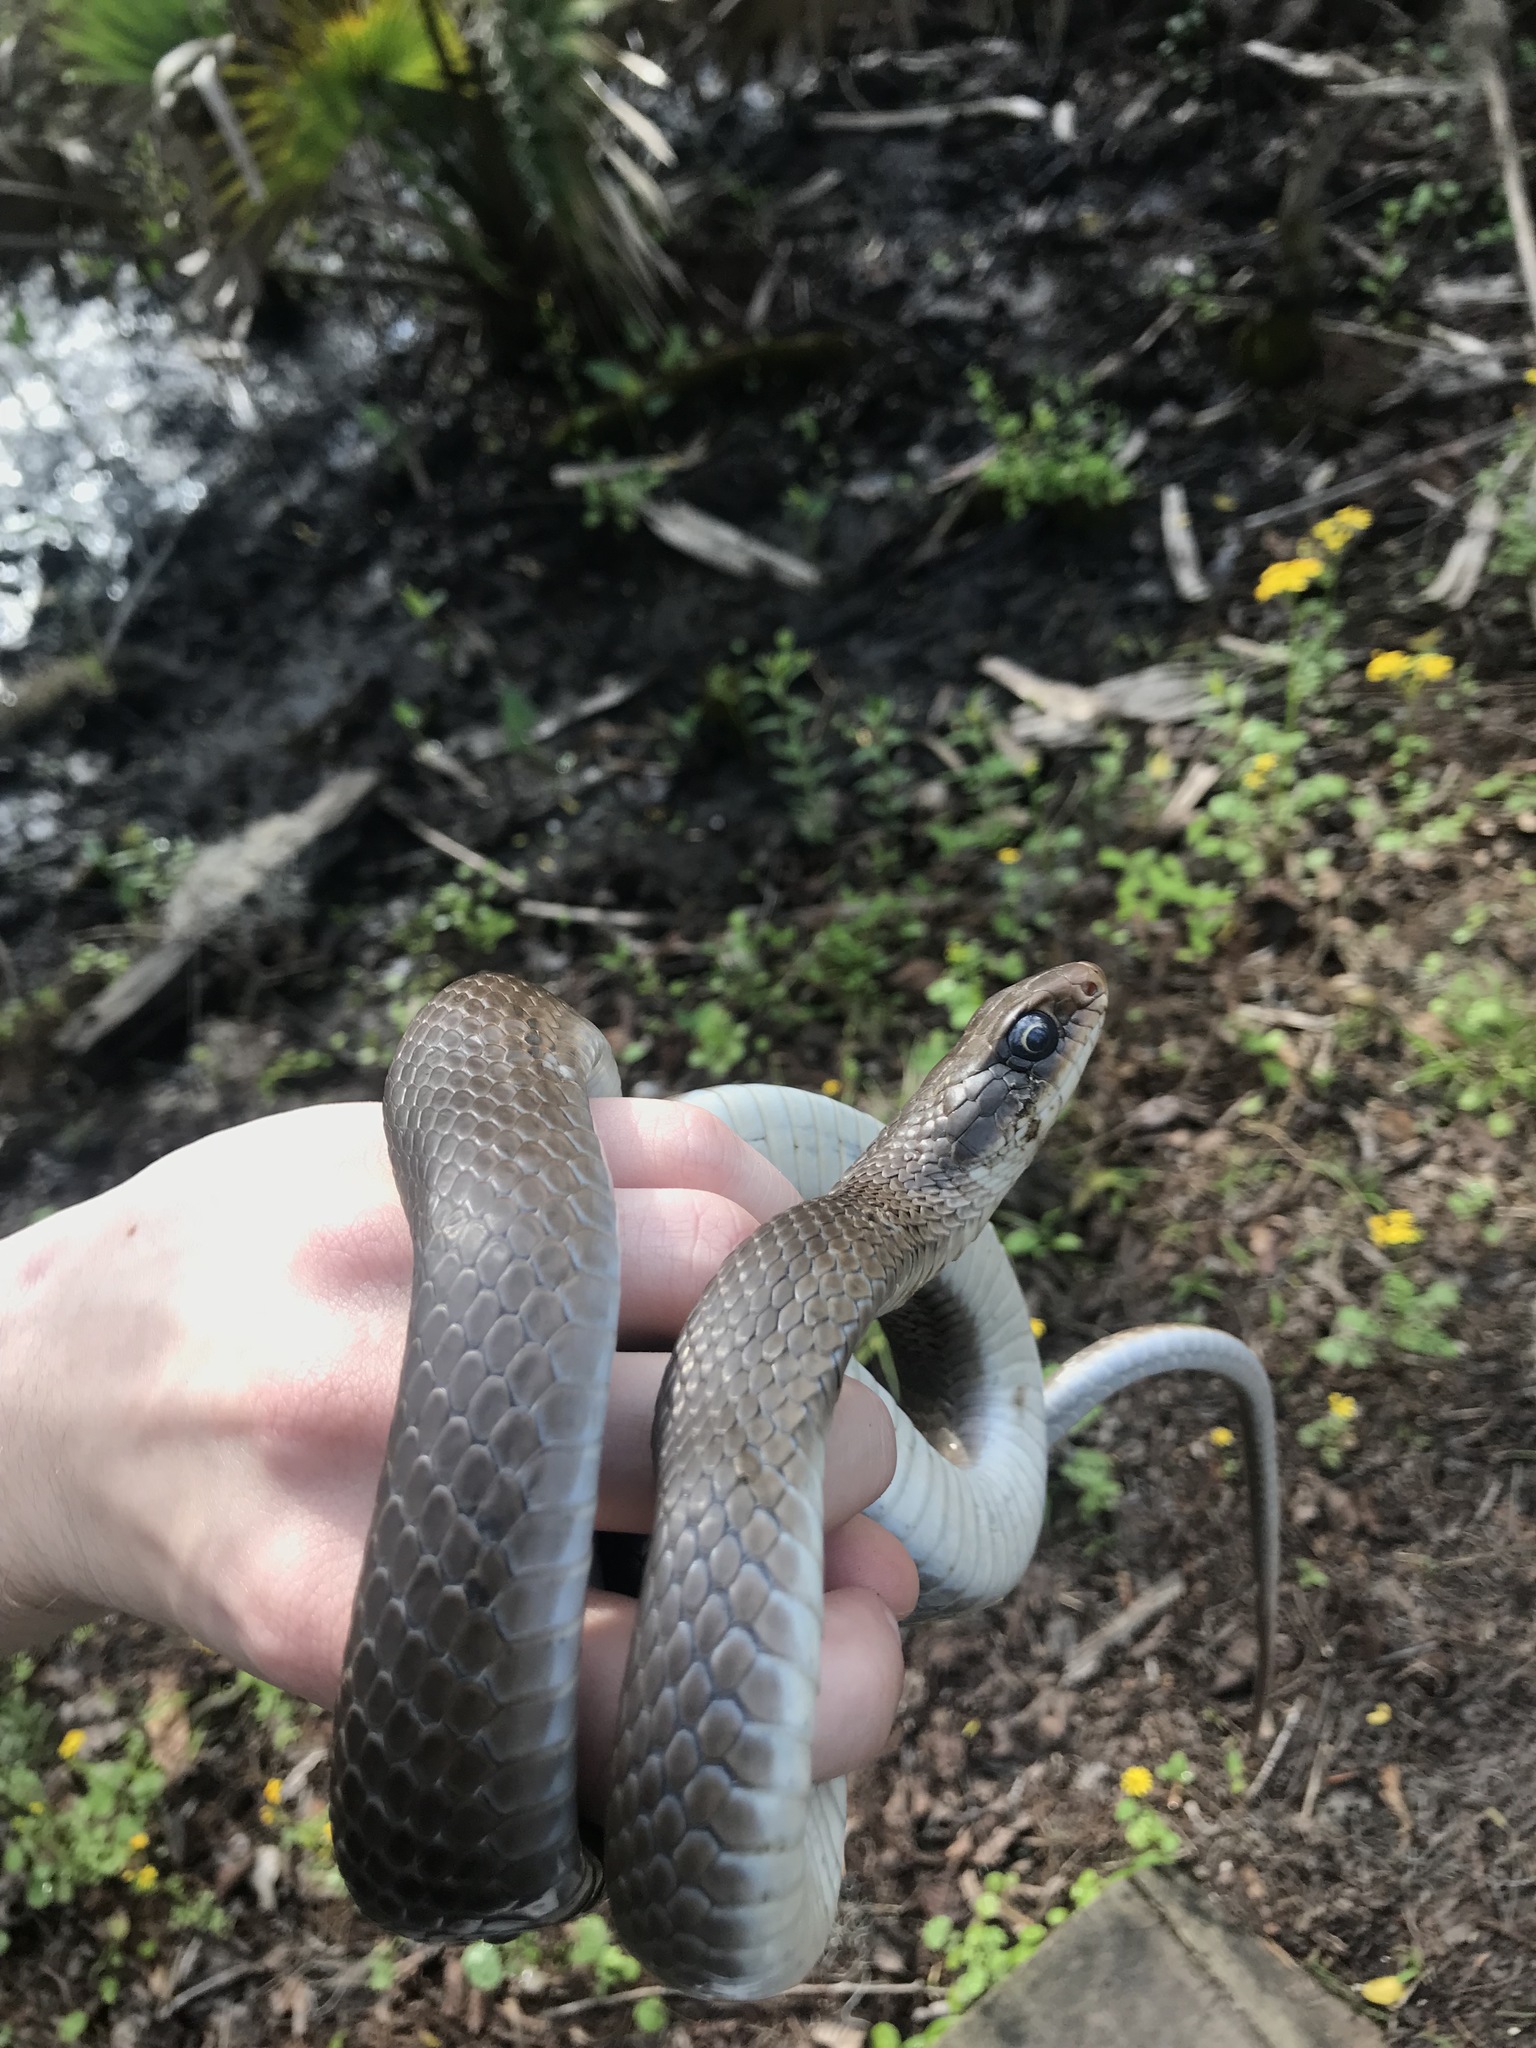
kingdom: Animalia
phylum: Chordata
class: Squamata
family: Colubridae
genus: Coluber
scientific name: Coluber constrictor
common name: Eastern racer
